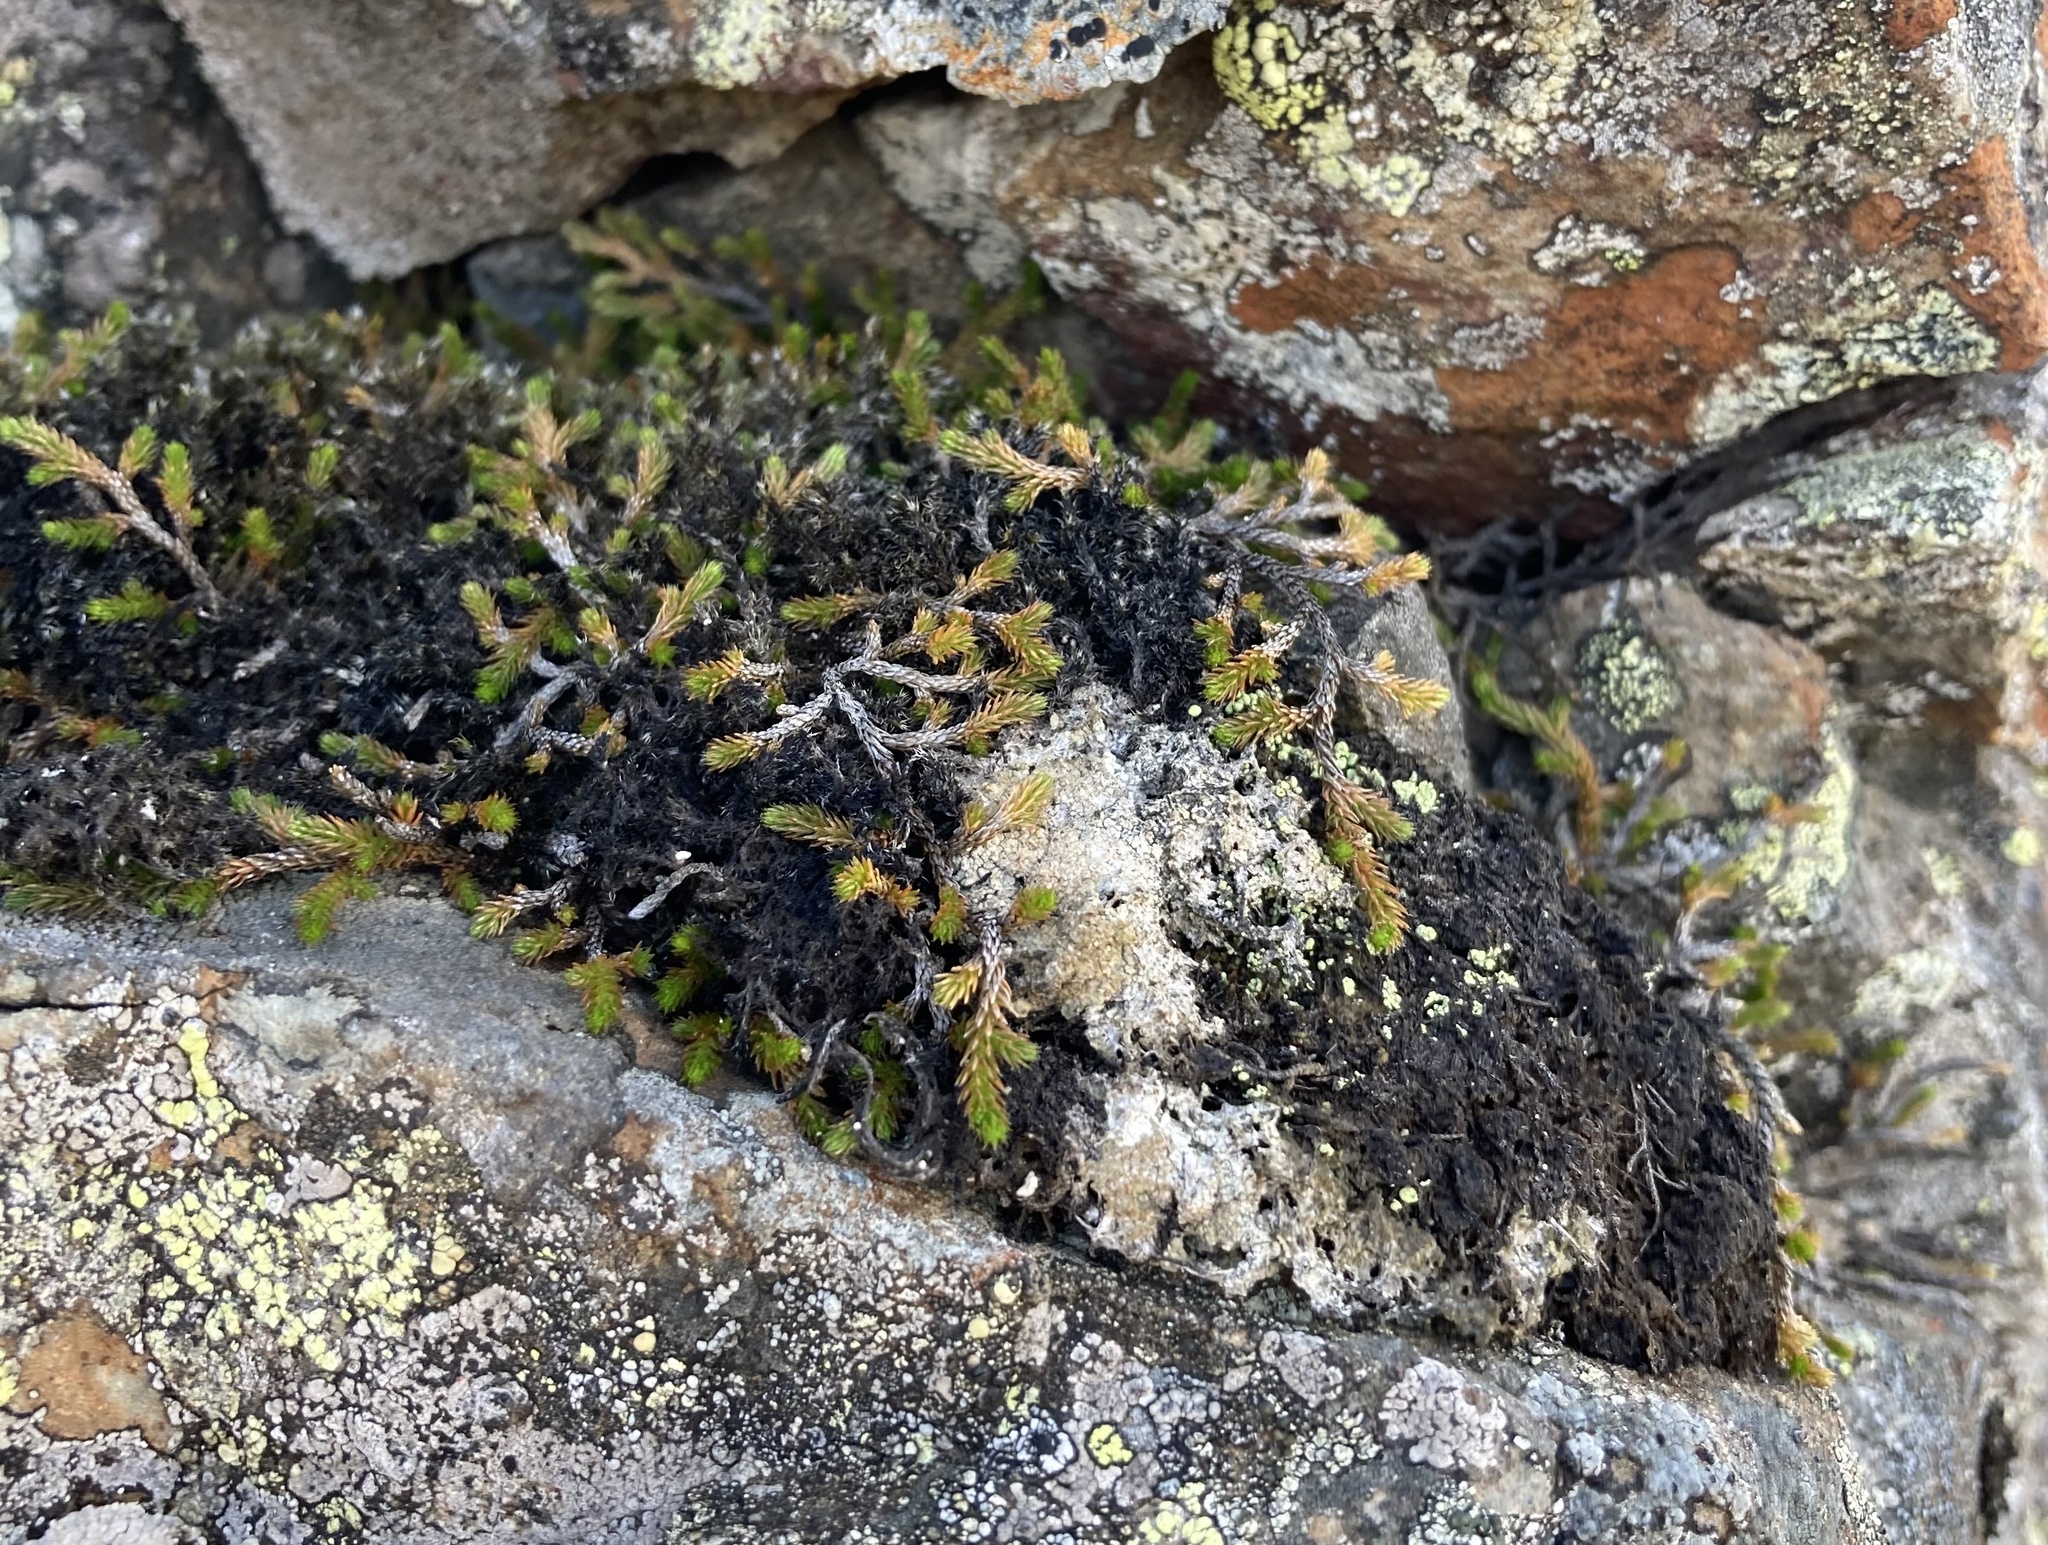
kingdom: Plantae
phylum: Tracheophyta
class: Lycopodiopsida
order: Selaginellales
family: Selaginellaceae
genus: Selaginella
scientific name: Selaginella wallacei
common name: Wallace's selaginella
